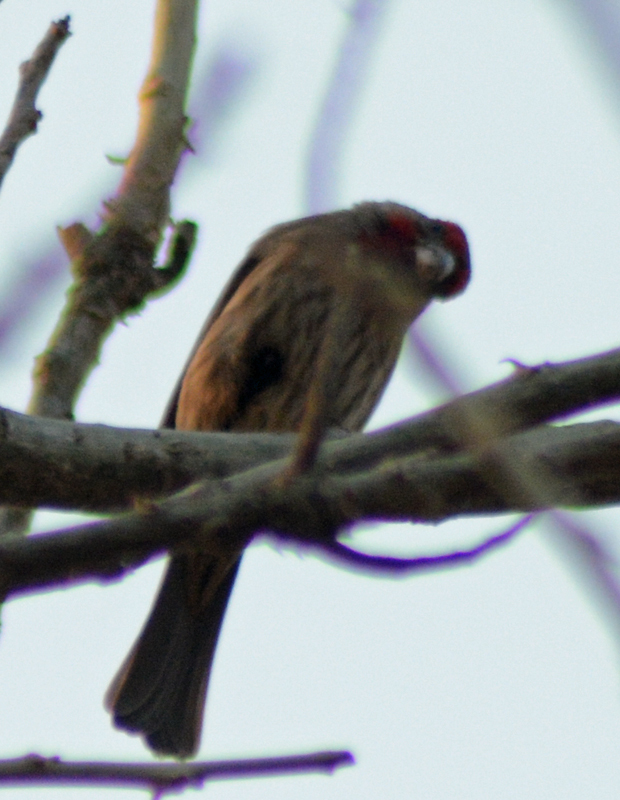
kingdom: Animalia
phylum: Chordata
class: Aves
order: Passeriformes
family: Fringillidae
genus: Haemorhous
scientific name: Haemorhous mexicanus
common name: House finch
